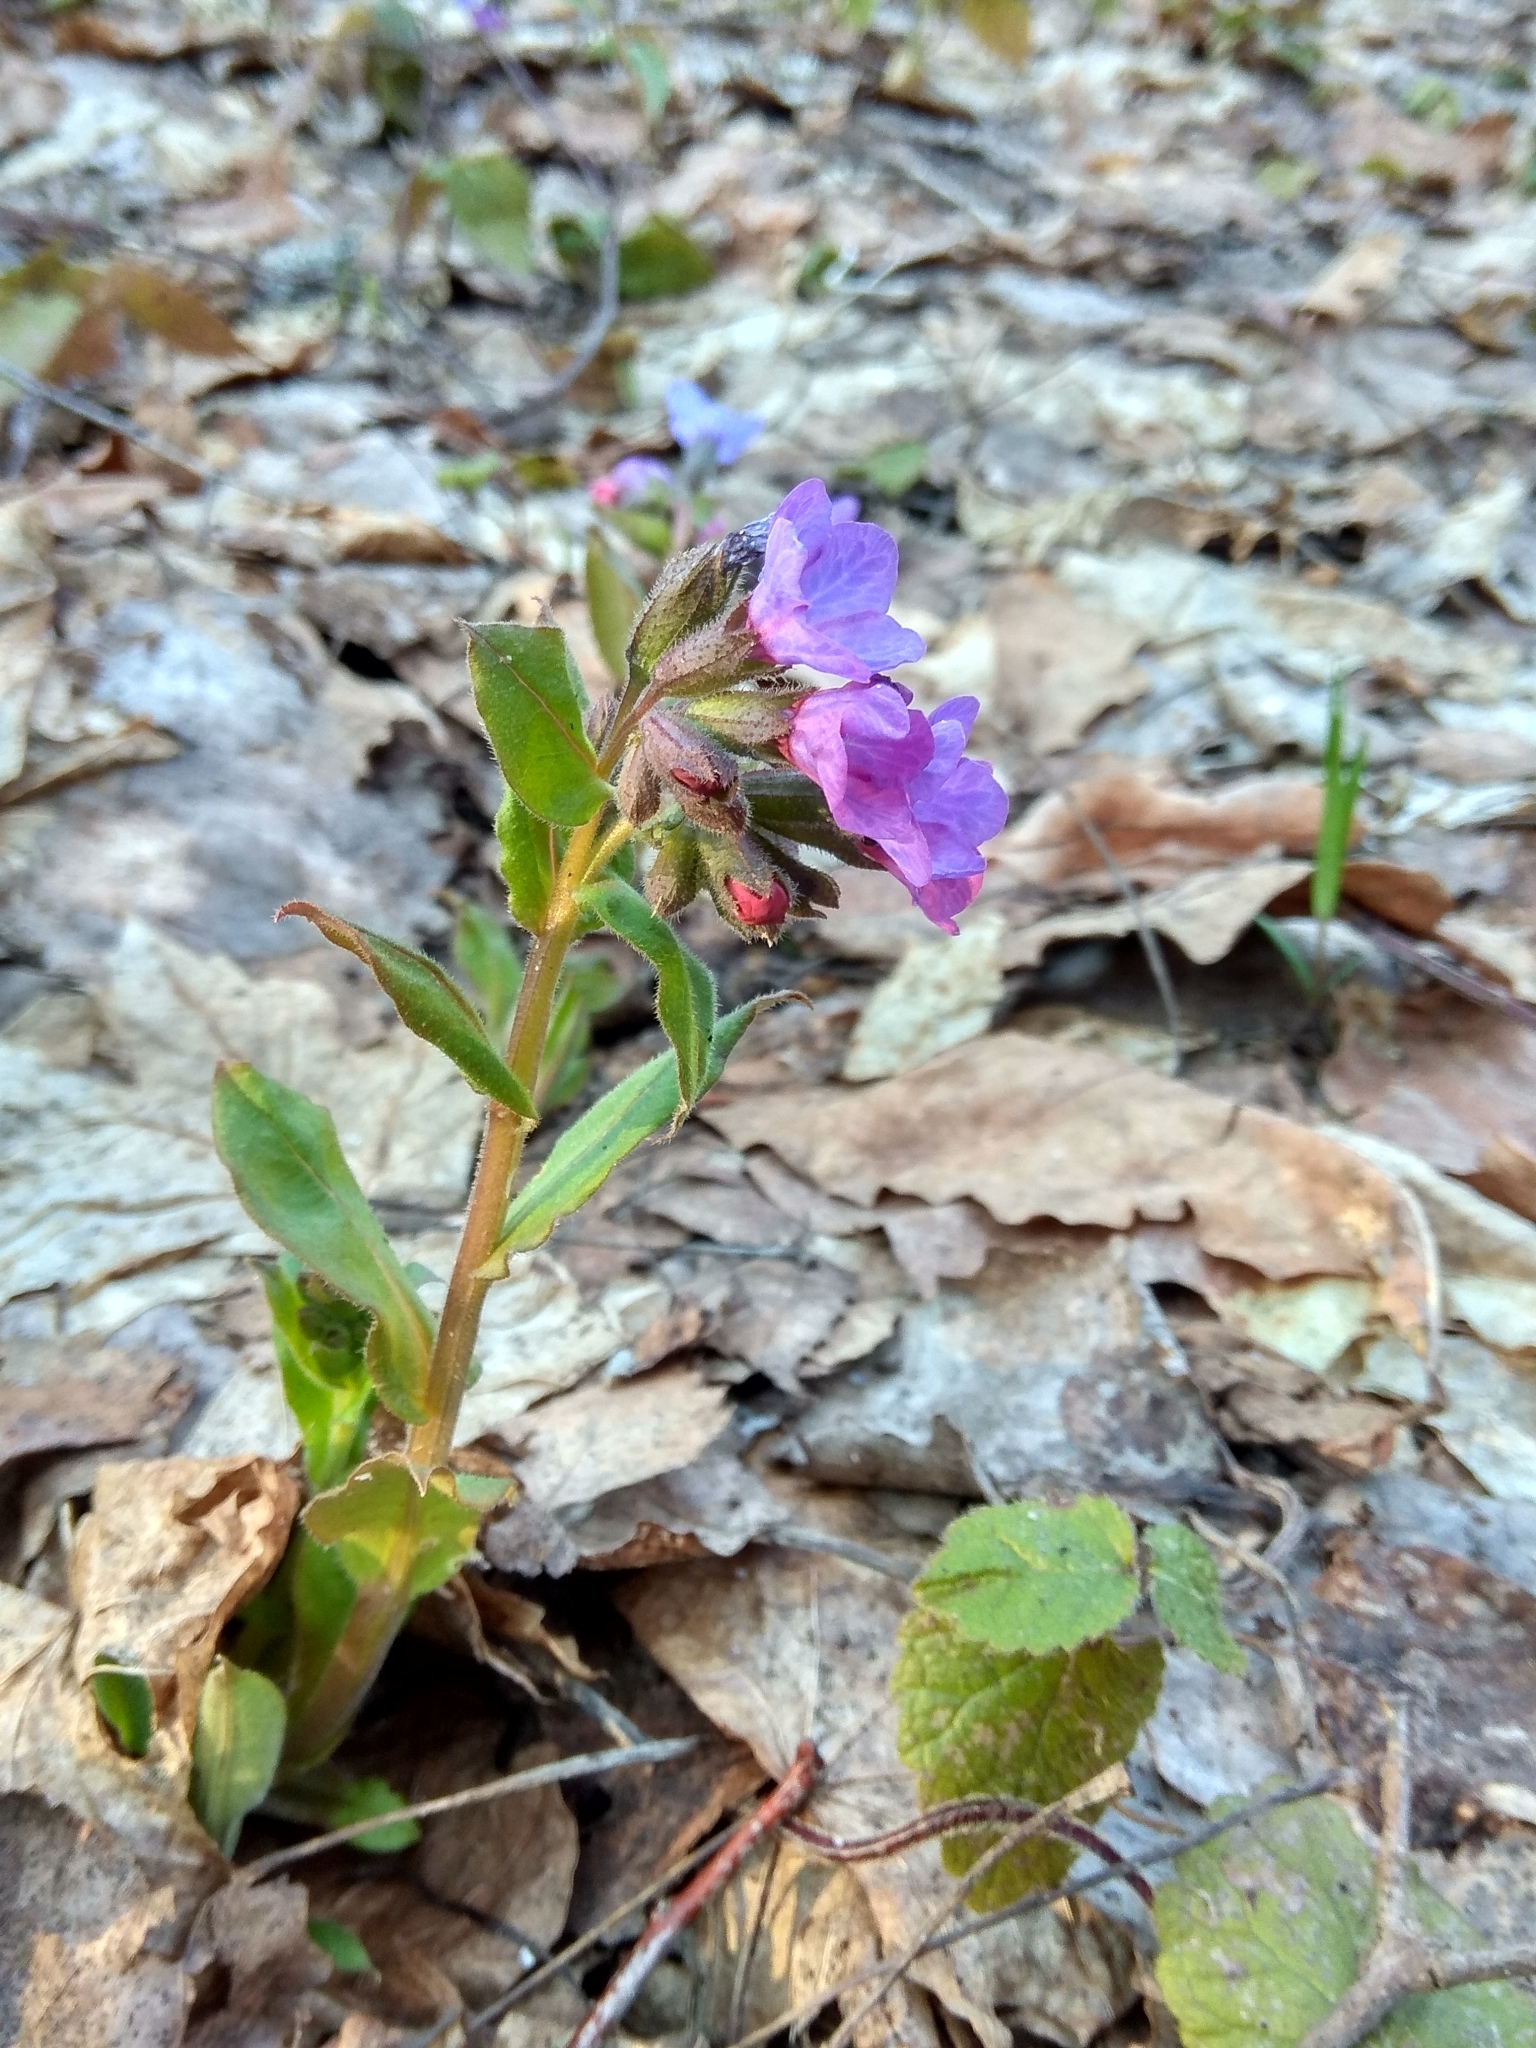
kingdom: Plantae
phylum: Tracheophyta
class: Magnoliopsida
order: Boraginales
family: Boraginaceae
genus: Pulmonaria
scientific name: Pulmonaria obscura
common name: Suffolk lungwort
